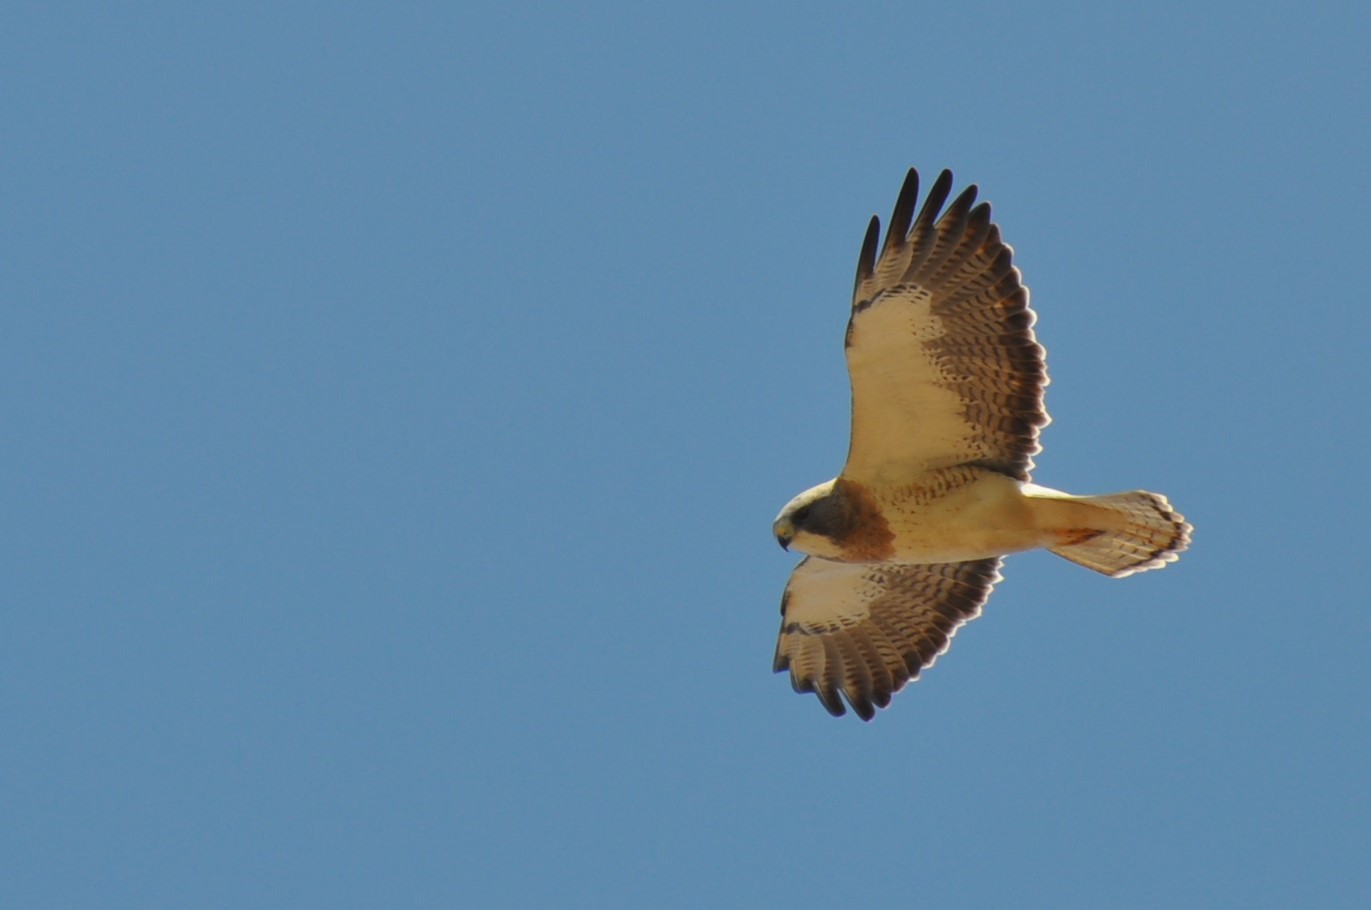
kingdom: Animalia
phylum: Chordata
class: Aves
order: Accipitriformes
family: Accipitridae
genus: Buteo
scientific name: Buteo swainsoni
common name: Swainson's hawk
